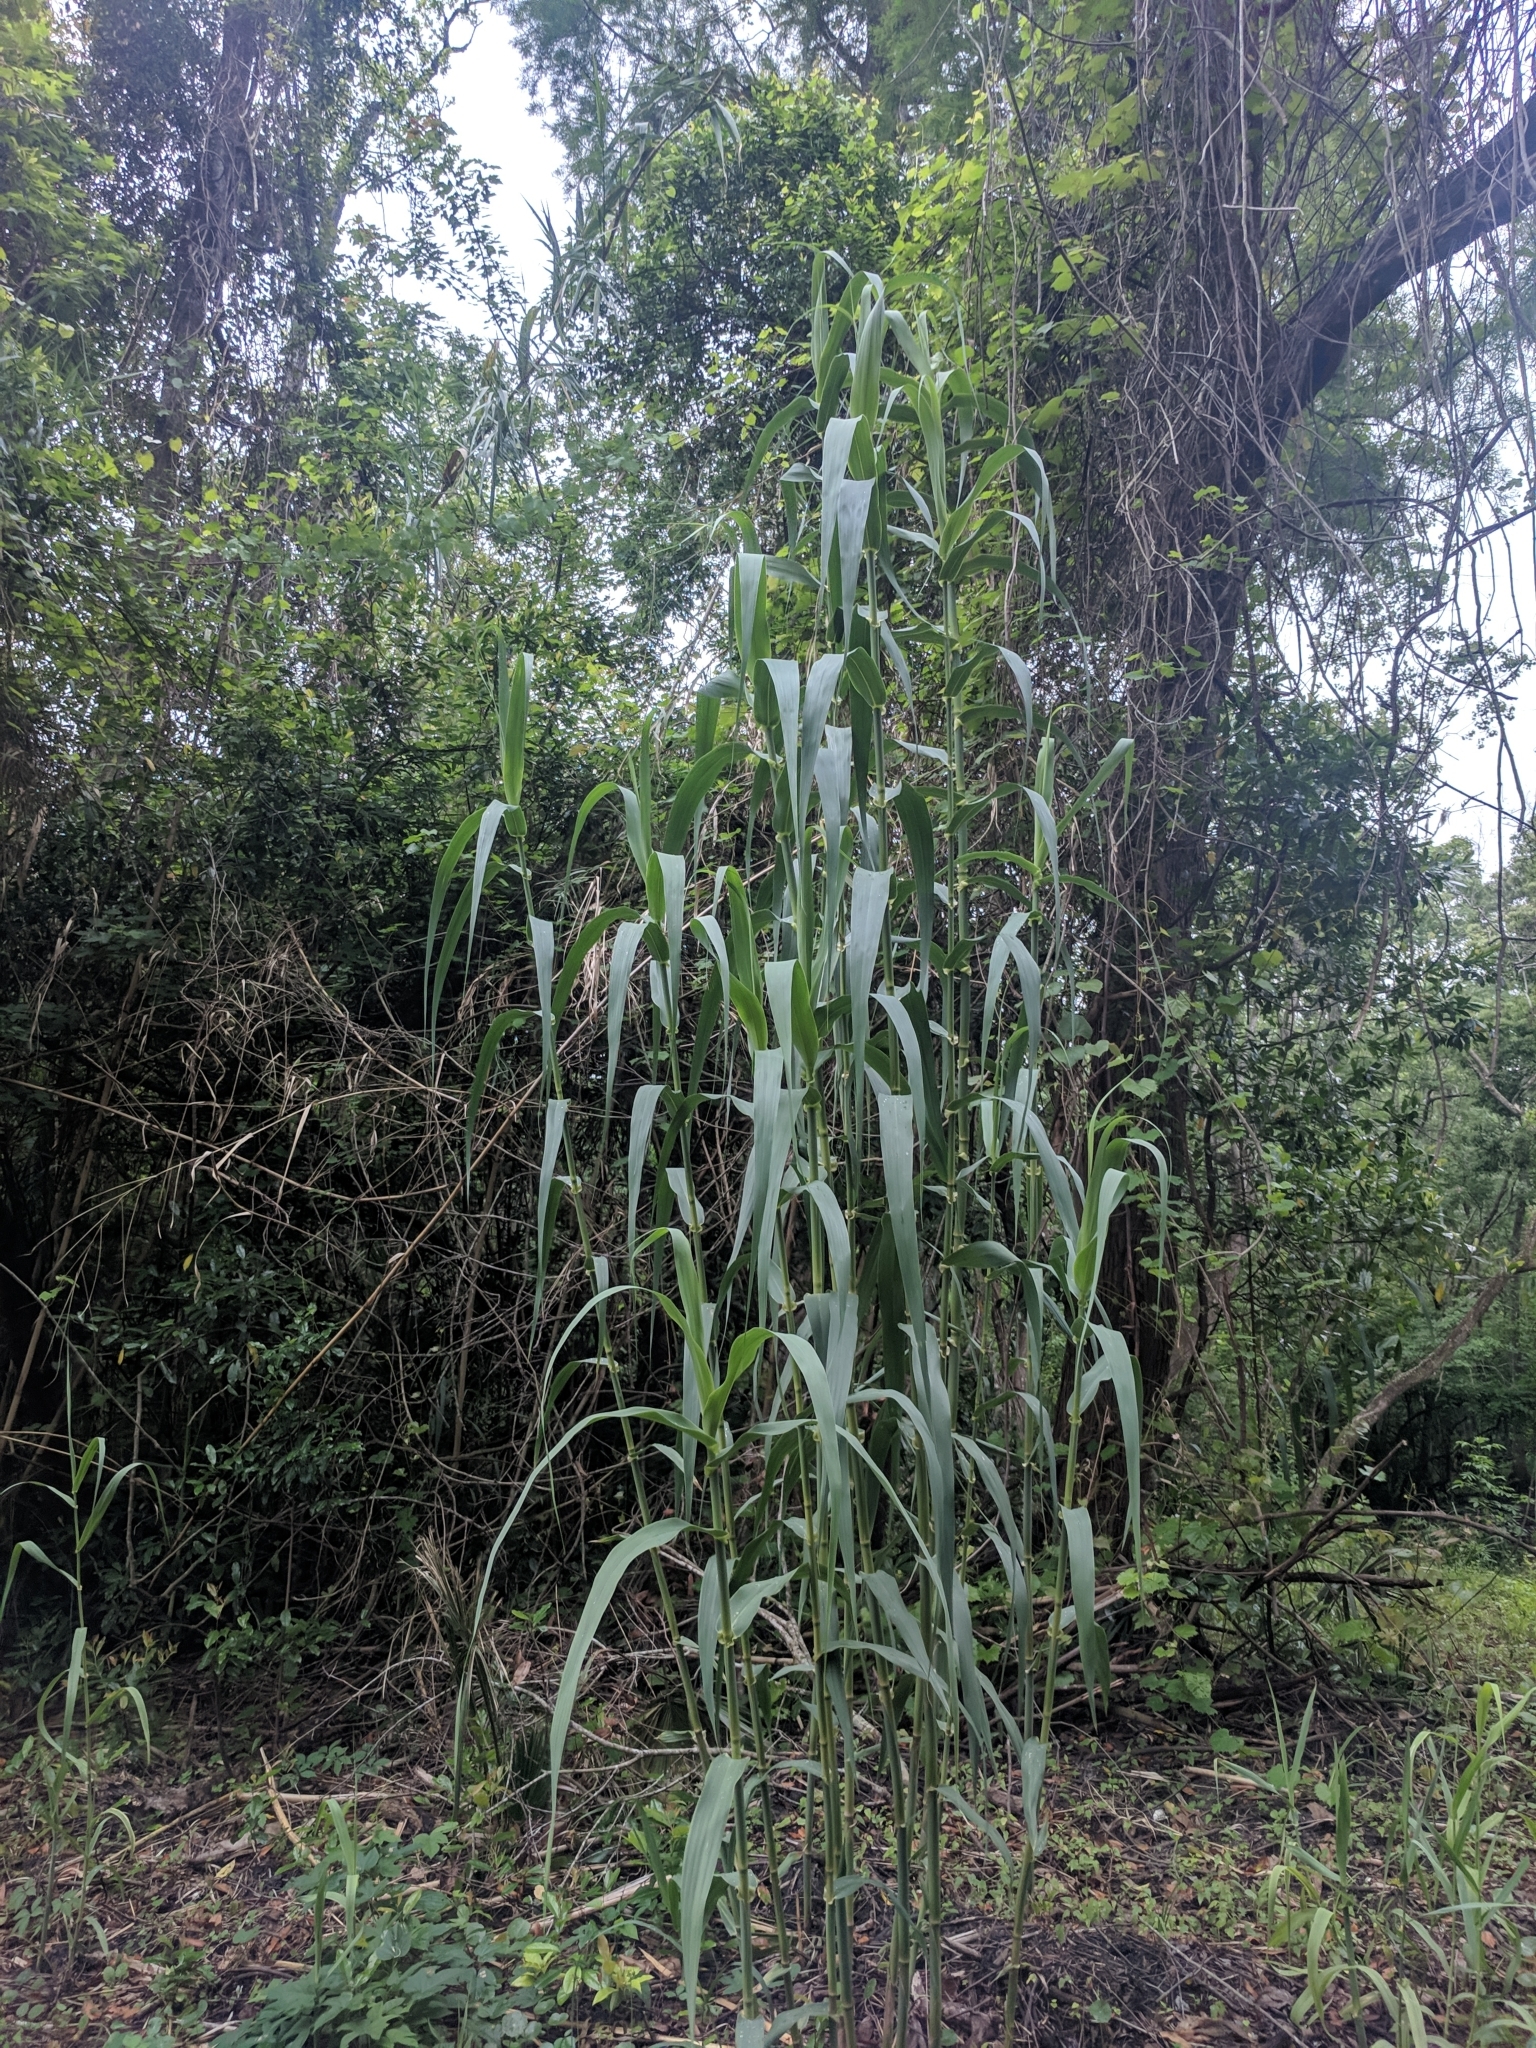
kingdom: Plantae
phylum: Tracheophyta
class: Liliopsida
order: Poales
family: Poaceae
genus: Arundo
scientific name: Arundo donax
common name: Giant reed
